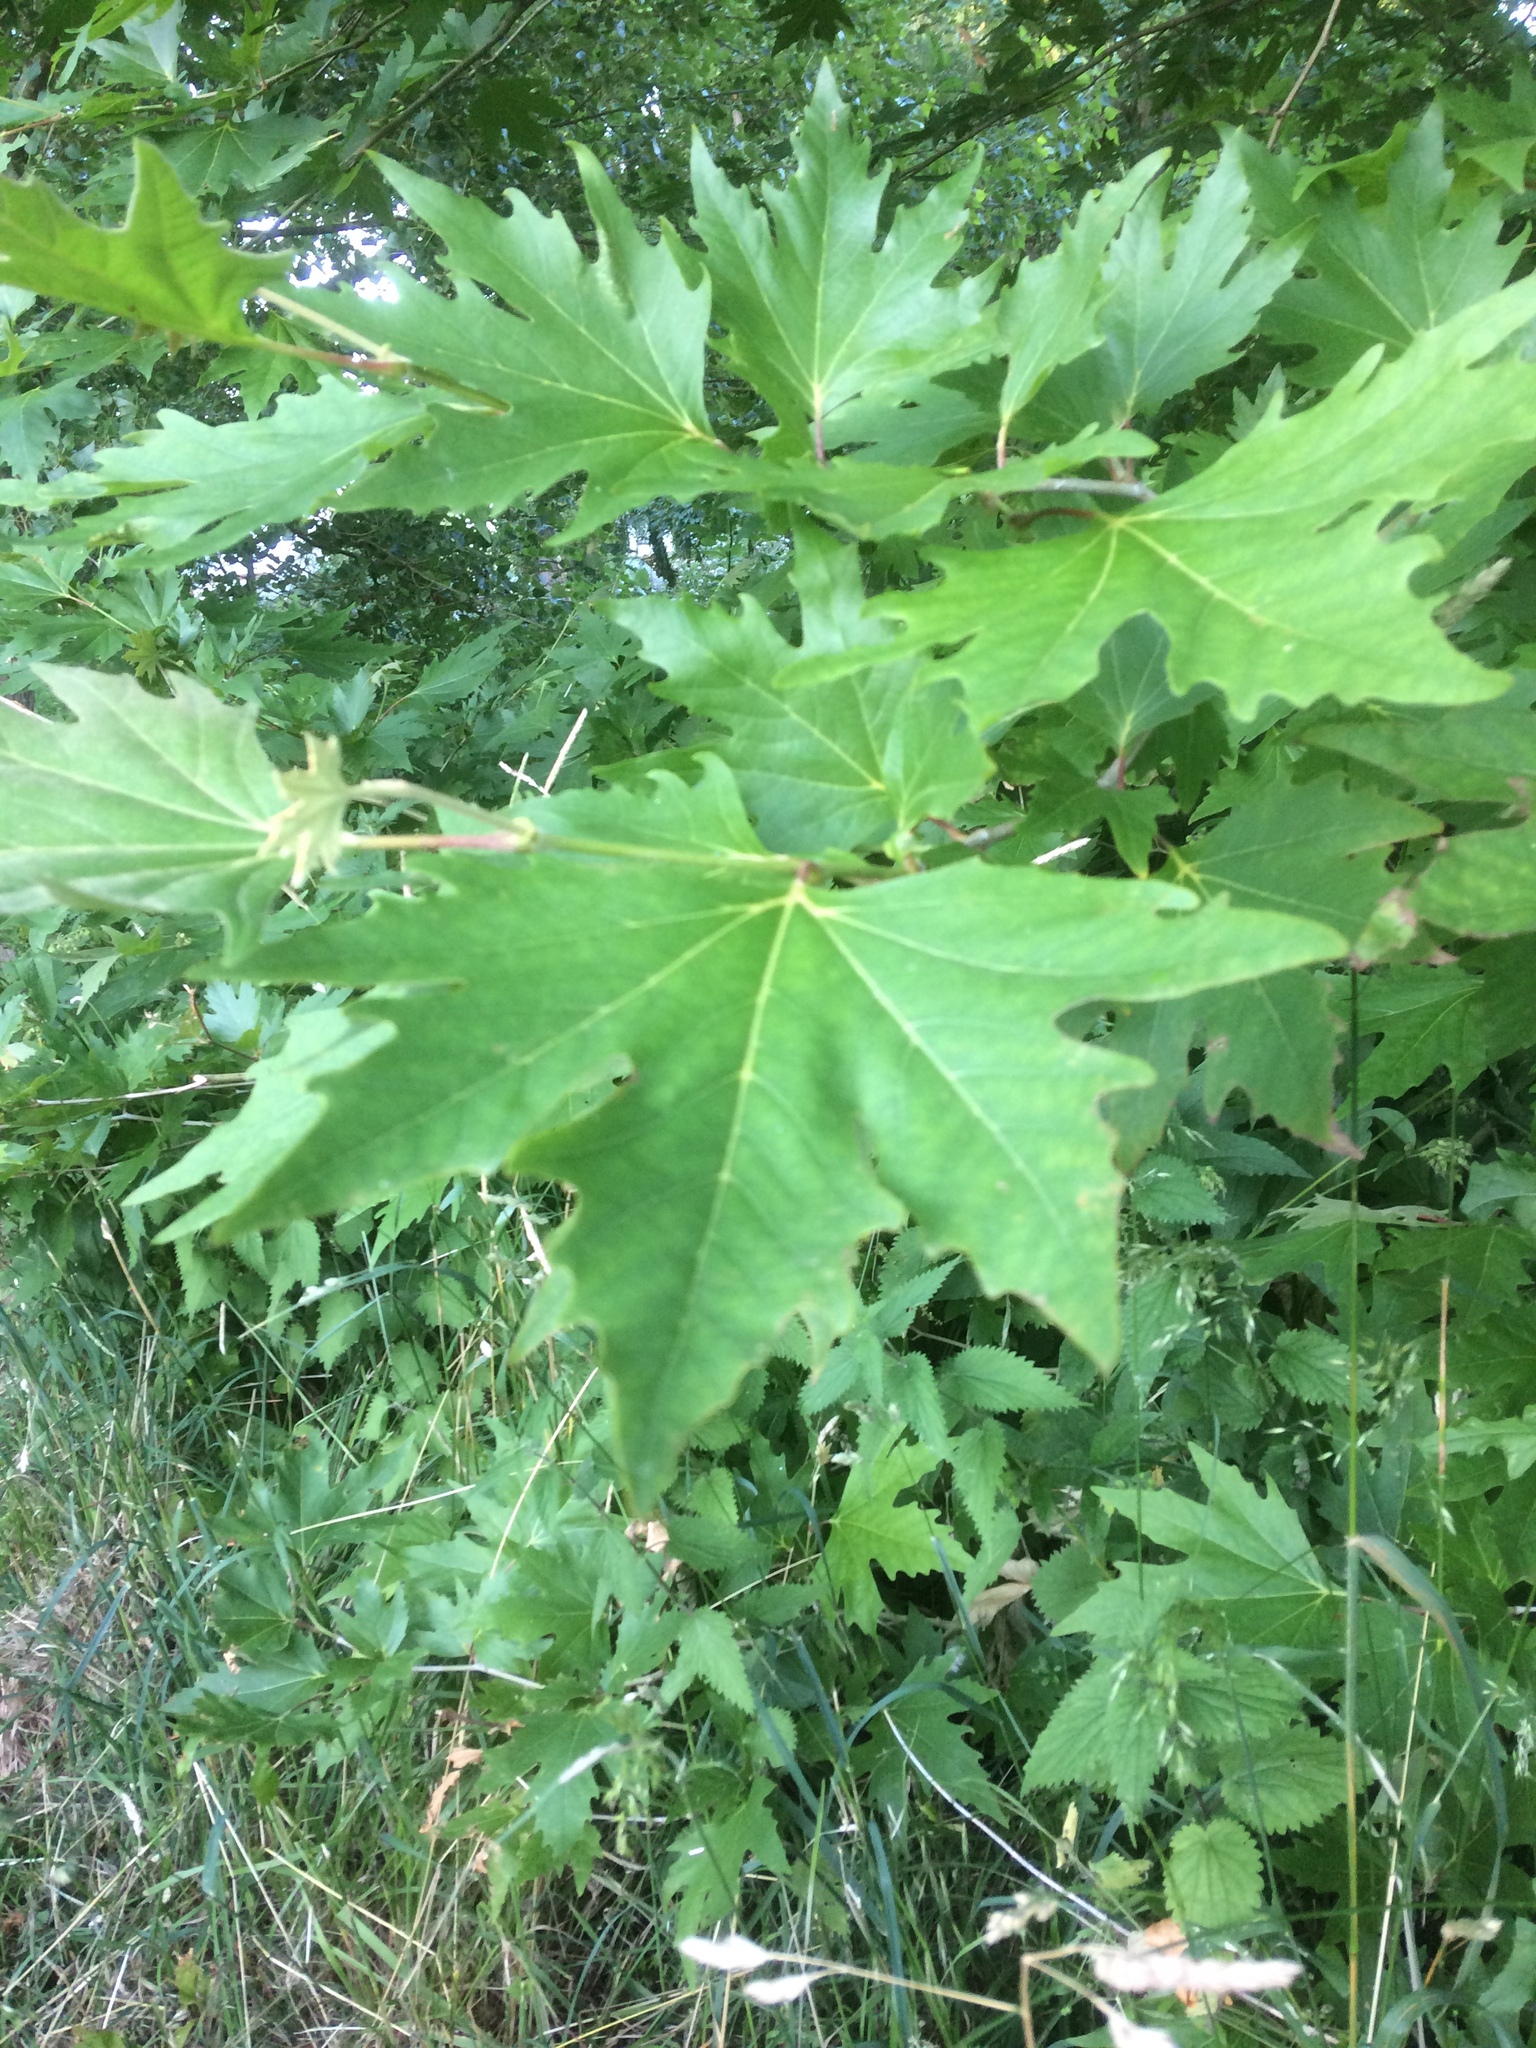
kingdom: Plantae
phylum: Tracheophyta
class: Magnoliopsida
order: Sapindales
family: Sapindaceae
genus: Acer
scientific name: Acer saccharinum
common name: Silver maple
